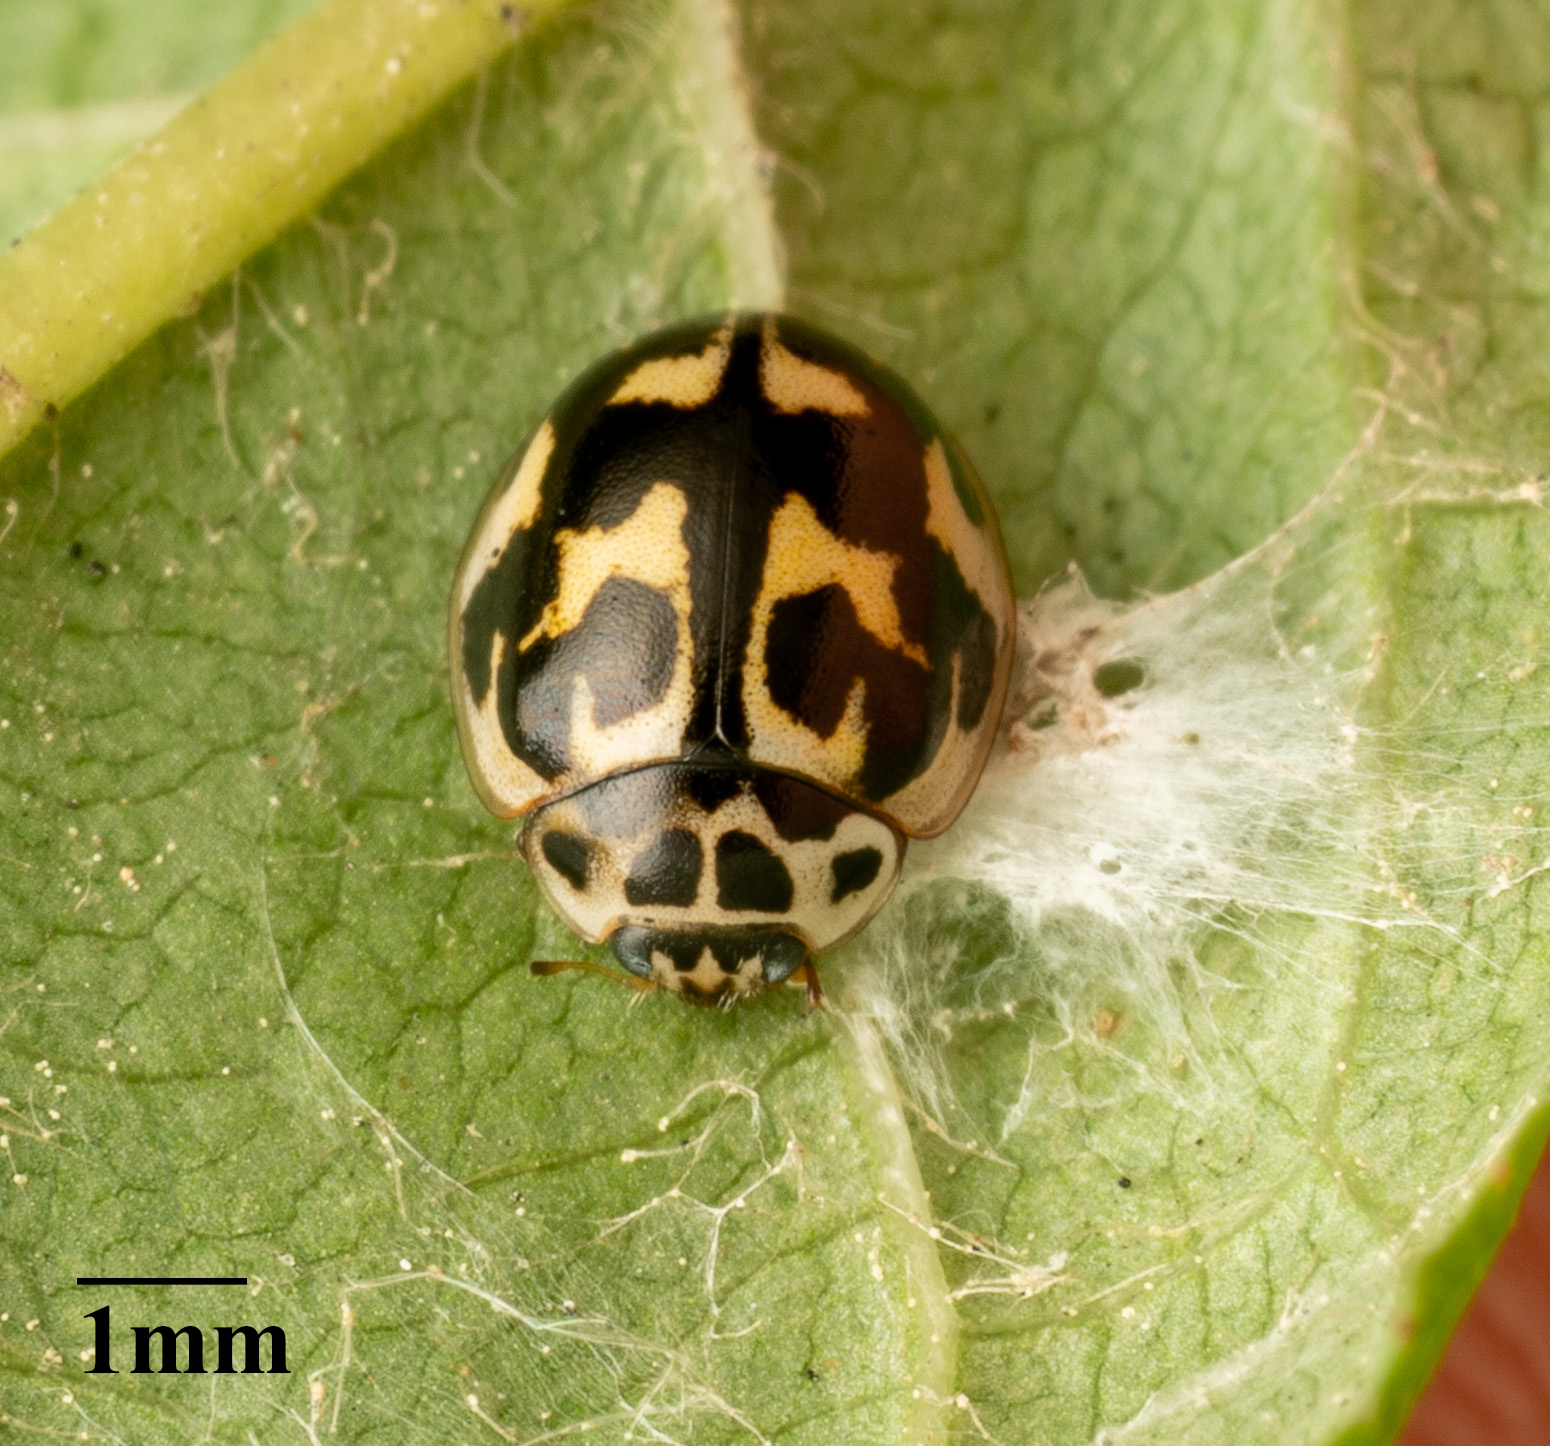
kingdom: Animalia
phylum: Arthropoda
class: Insecta
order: Coleoptera
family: Coccinellidae
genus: Oenopia
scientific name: Oenopia conglobata
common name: Ladybird beetle
